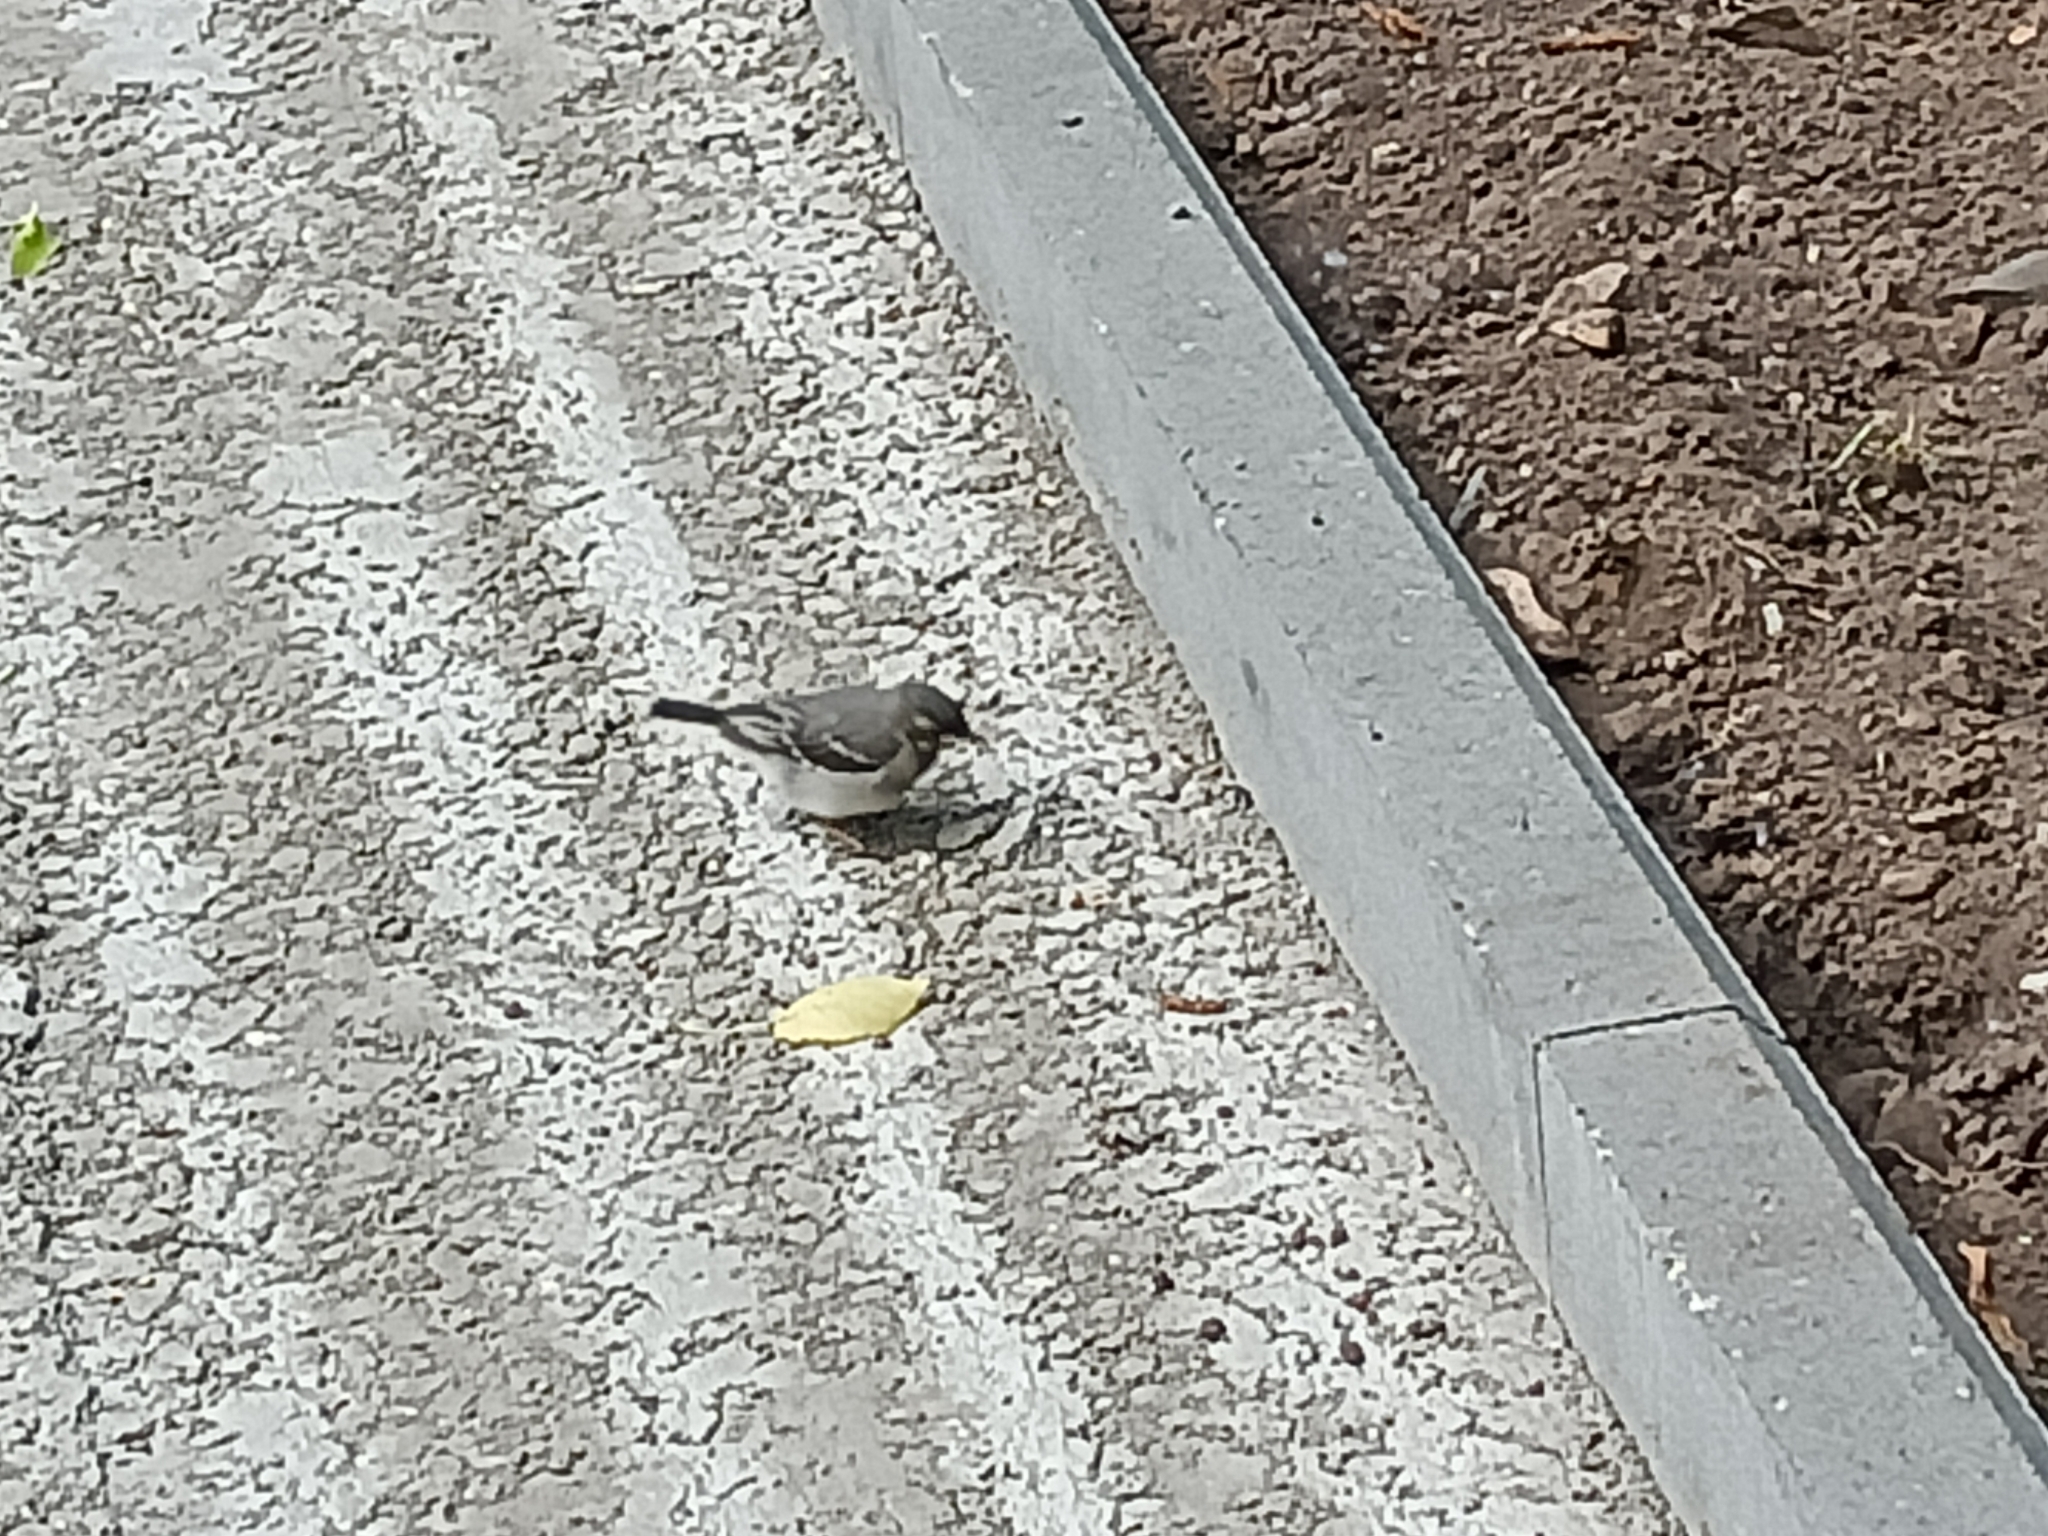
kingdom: Animalia
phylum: Chordata
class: Aves
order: Passeriformes
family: Motacillidae
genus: Motacilla
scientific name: Motacilla alba
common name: White wagtail
